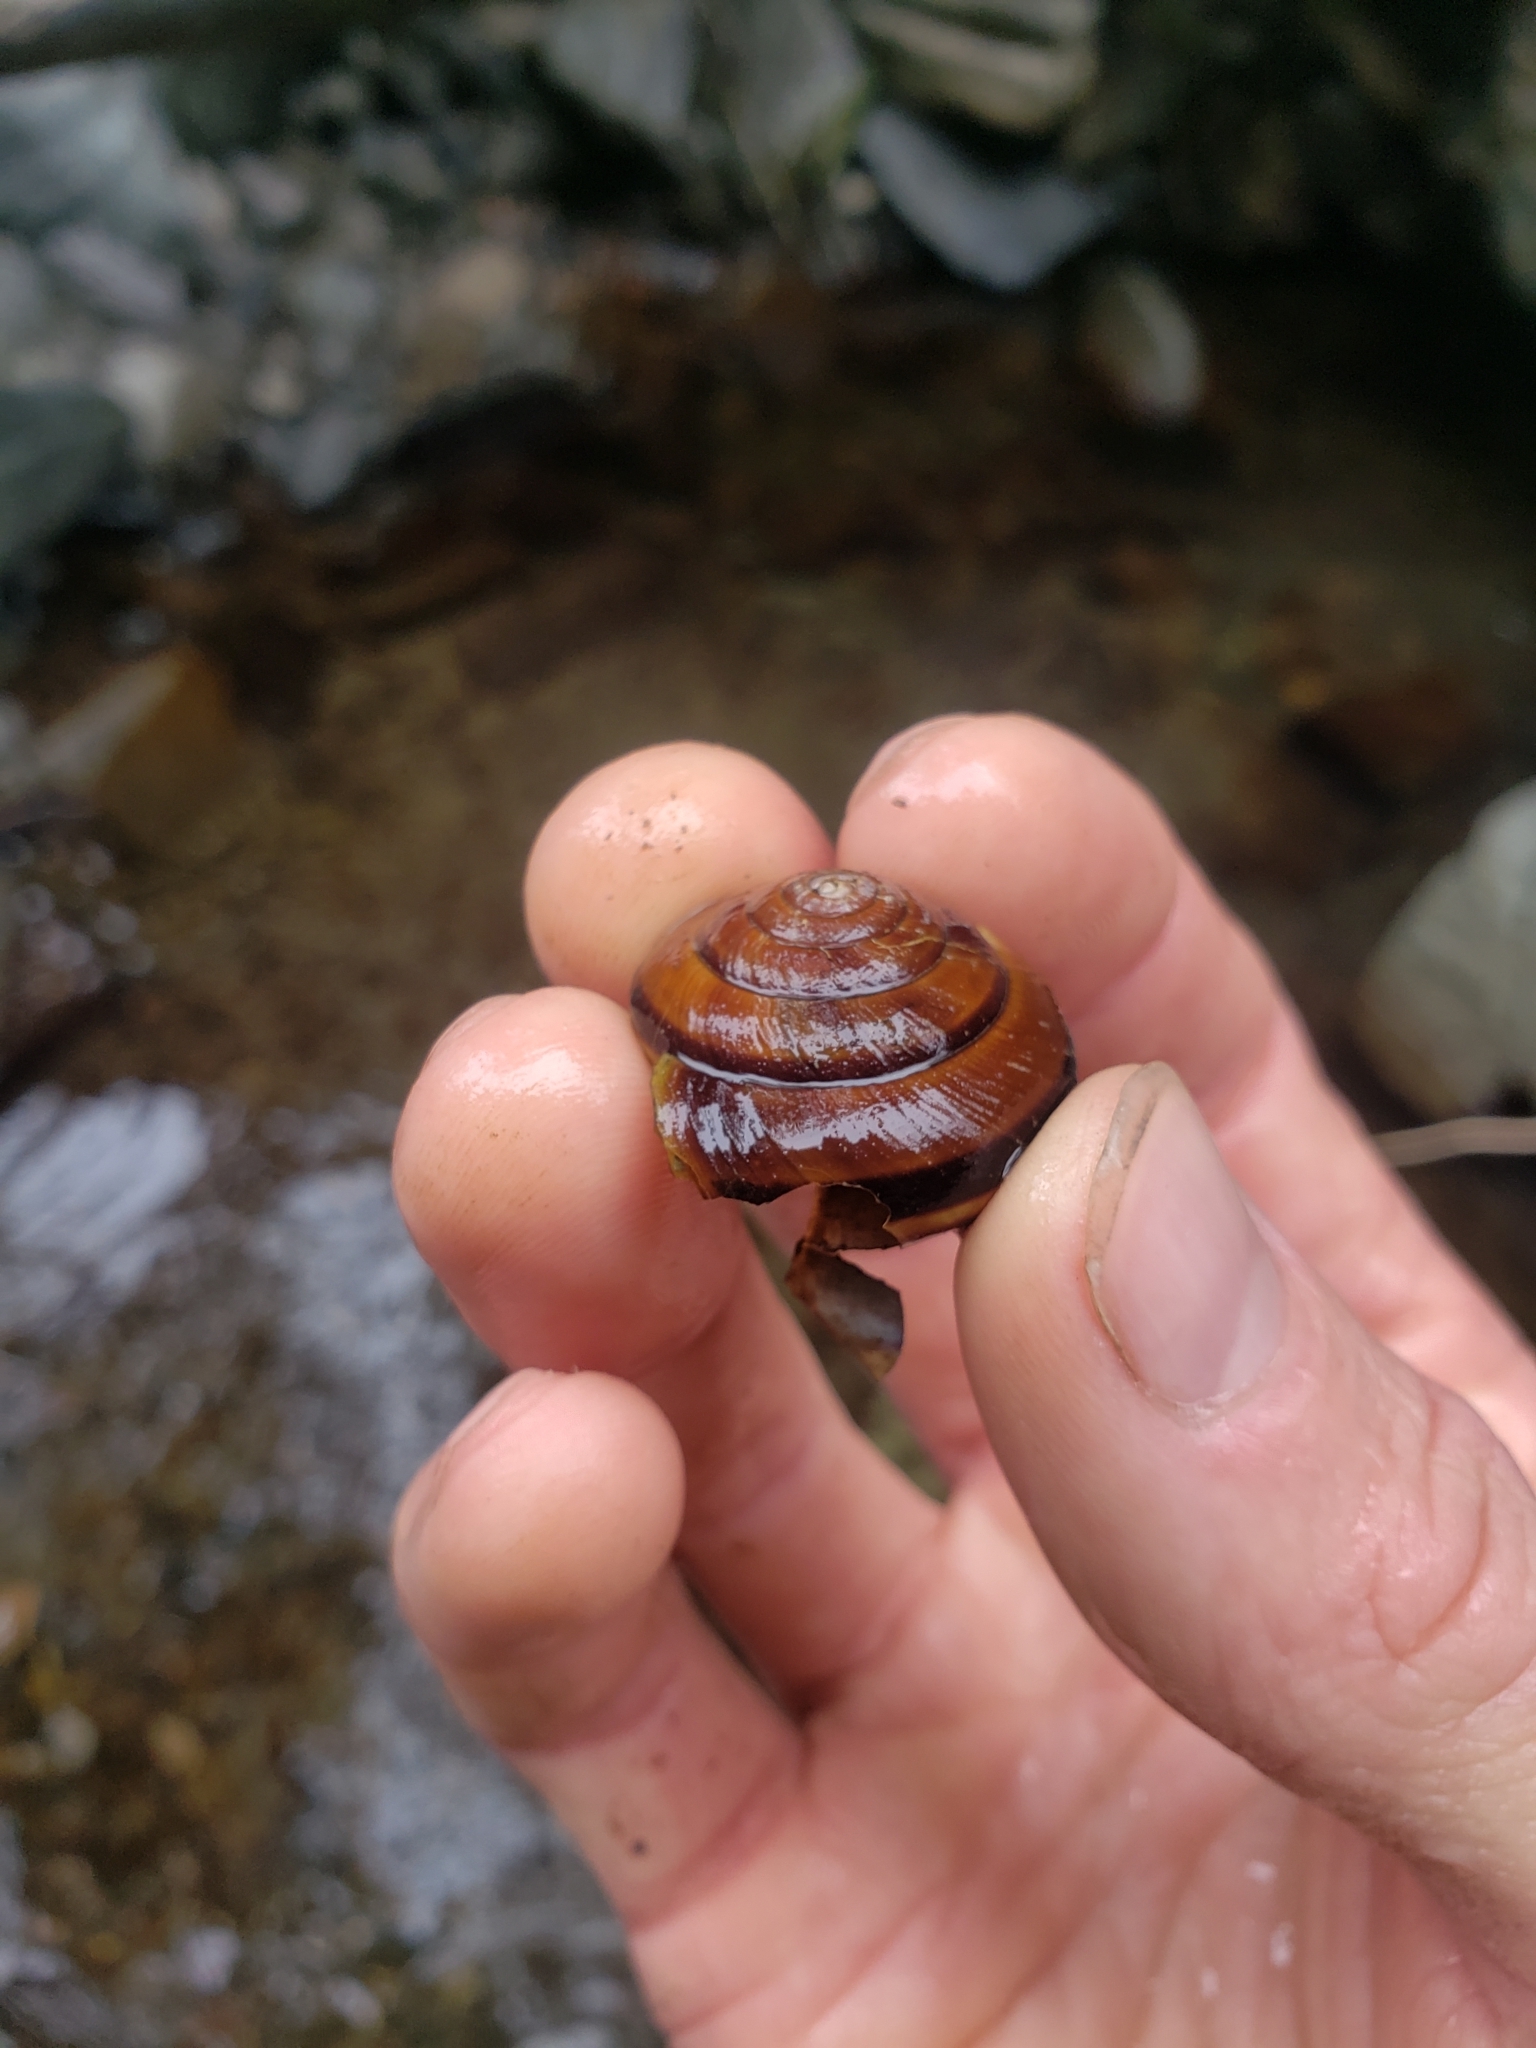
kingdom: Animalia
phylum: Mollusca
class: Gastropoda
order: Stylommatophora
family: Xanthonychidae
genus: Monadenia
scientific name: Monadenia fidelis
